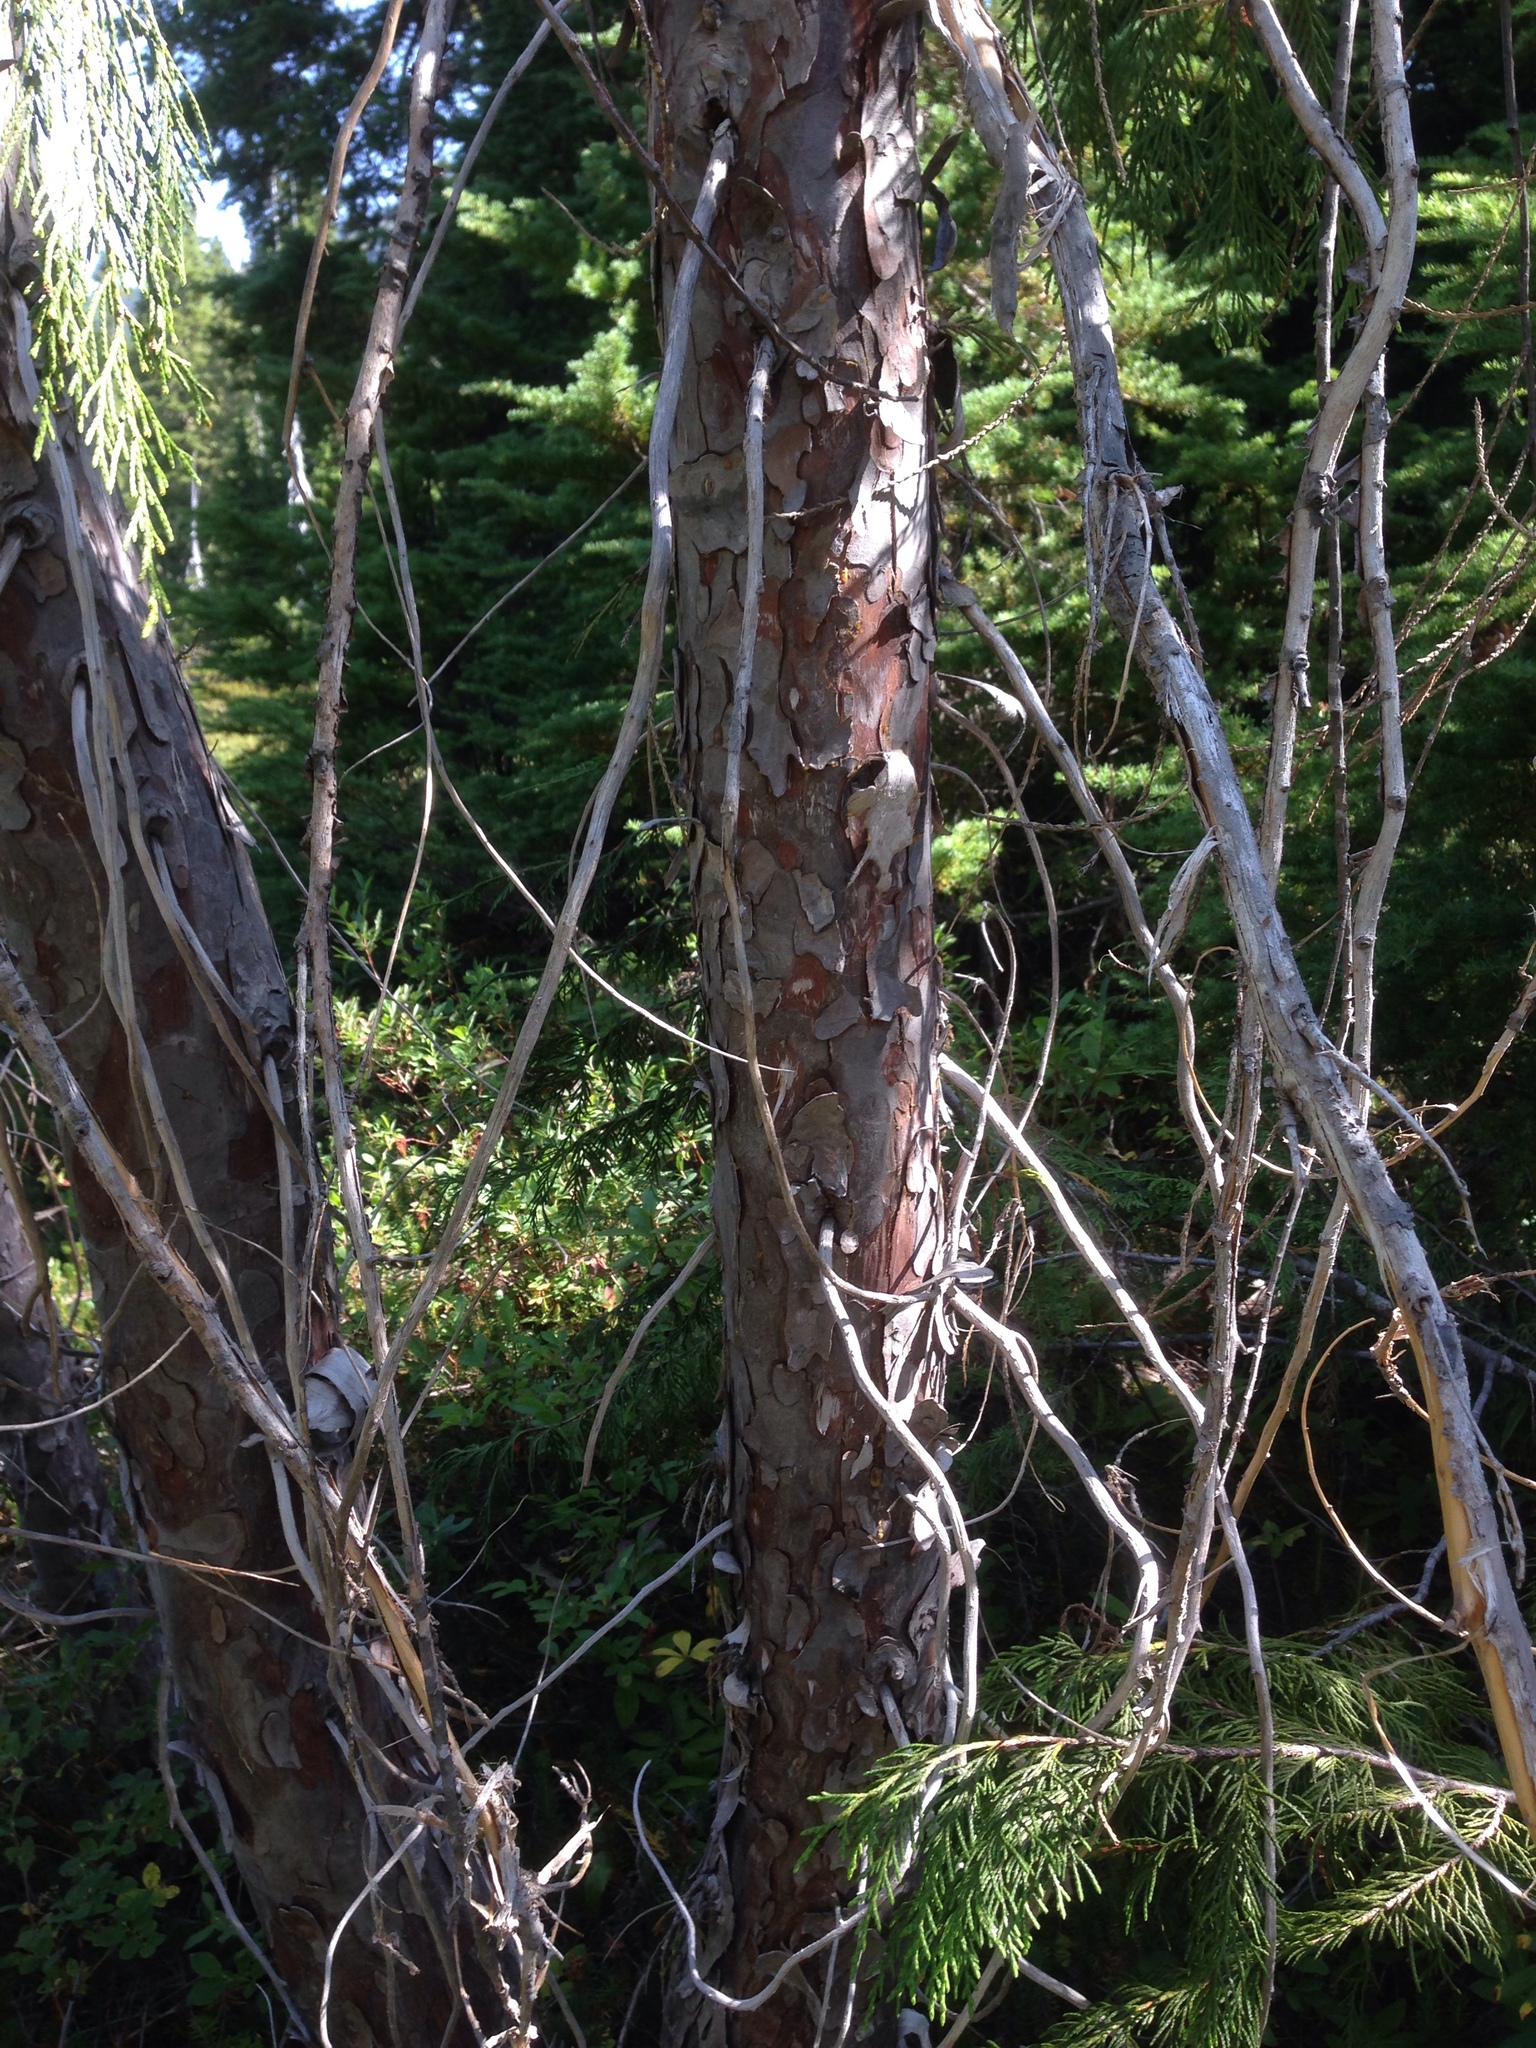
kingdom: Plantae
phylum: Tracheophyta
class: Pinopsida
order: Pinales
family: Cupressaceae
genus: Xanthocyparis
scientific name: Xanthocyparis nootkatensis
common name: Nootka cypress
